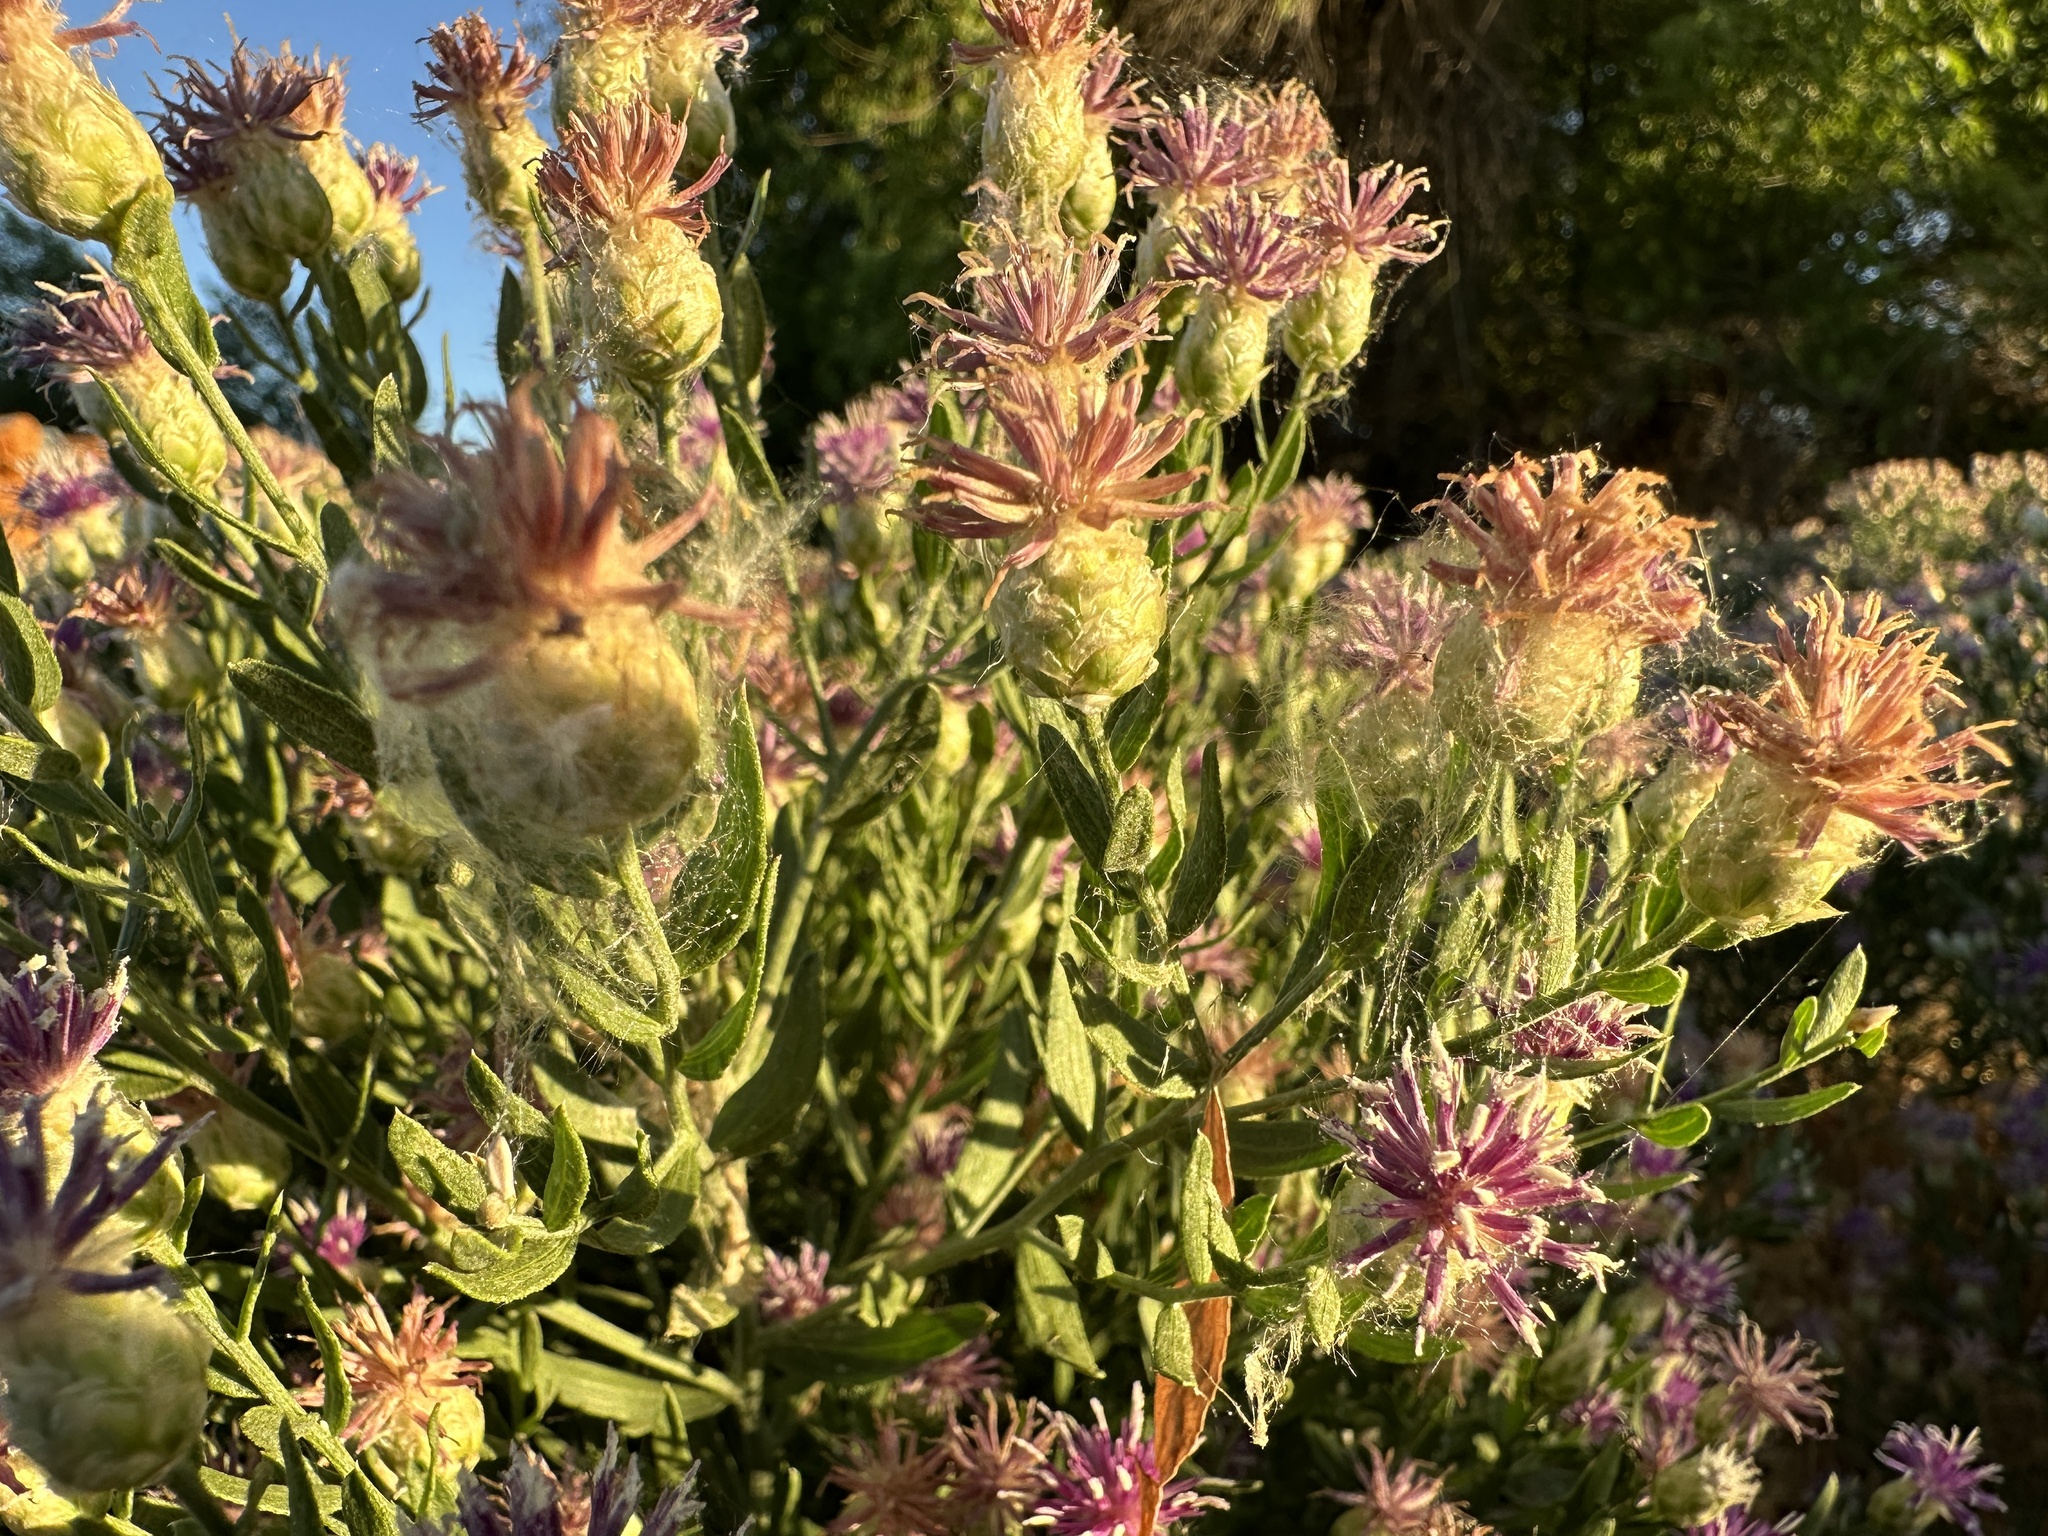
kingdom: Plantae
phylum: Tracheophyta
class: Magnoliopsida
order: Asterales
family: Asteraceae
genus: Leuzea
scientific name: Leuzea repens
